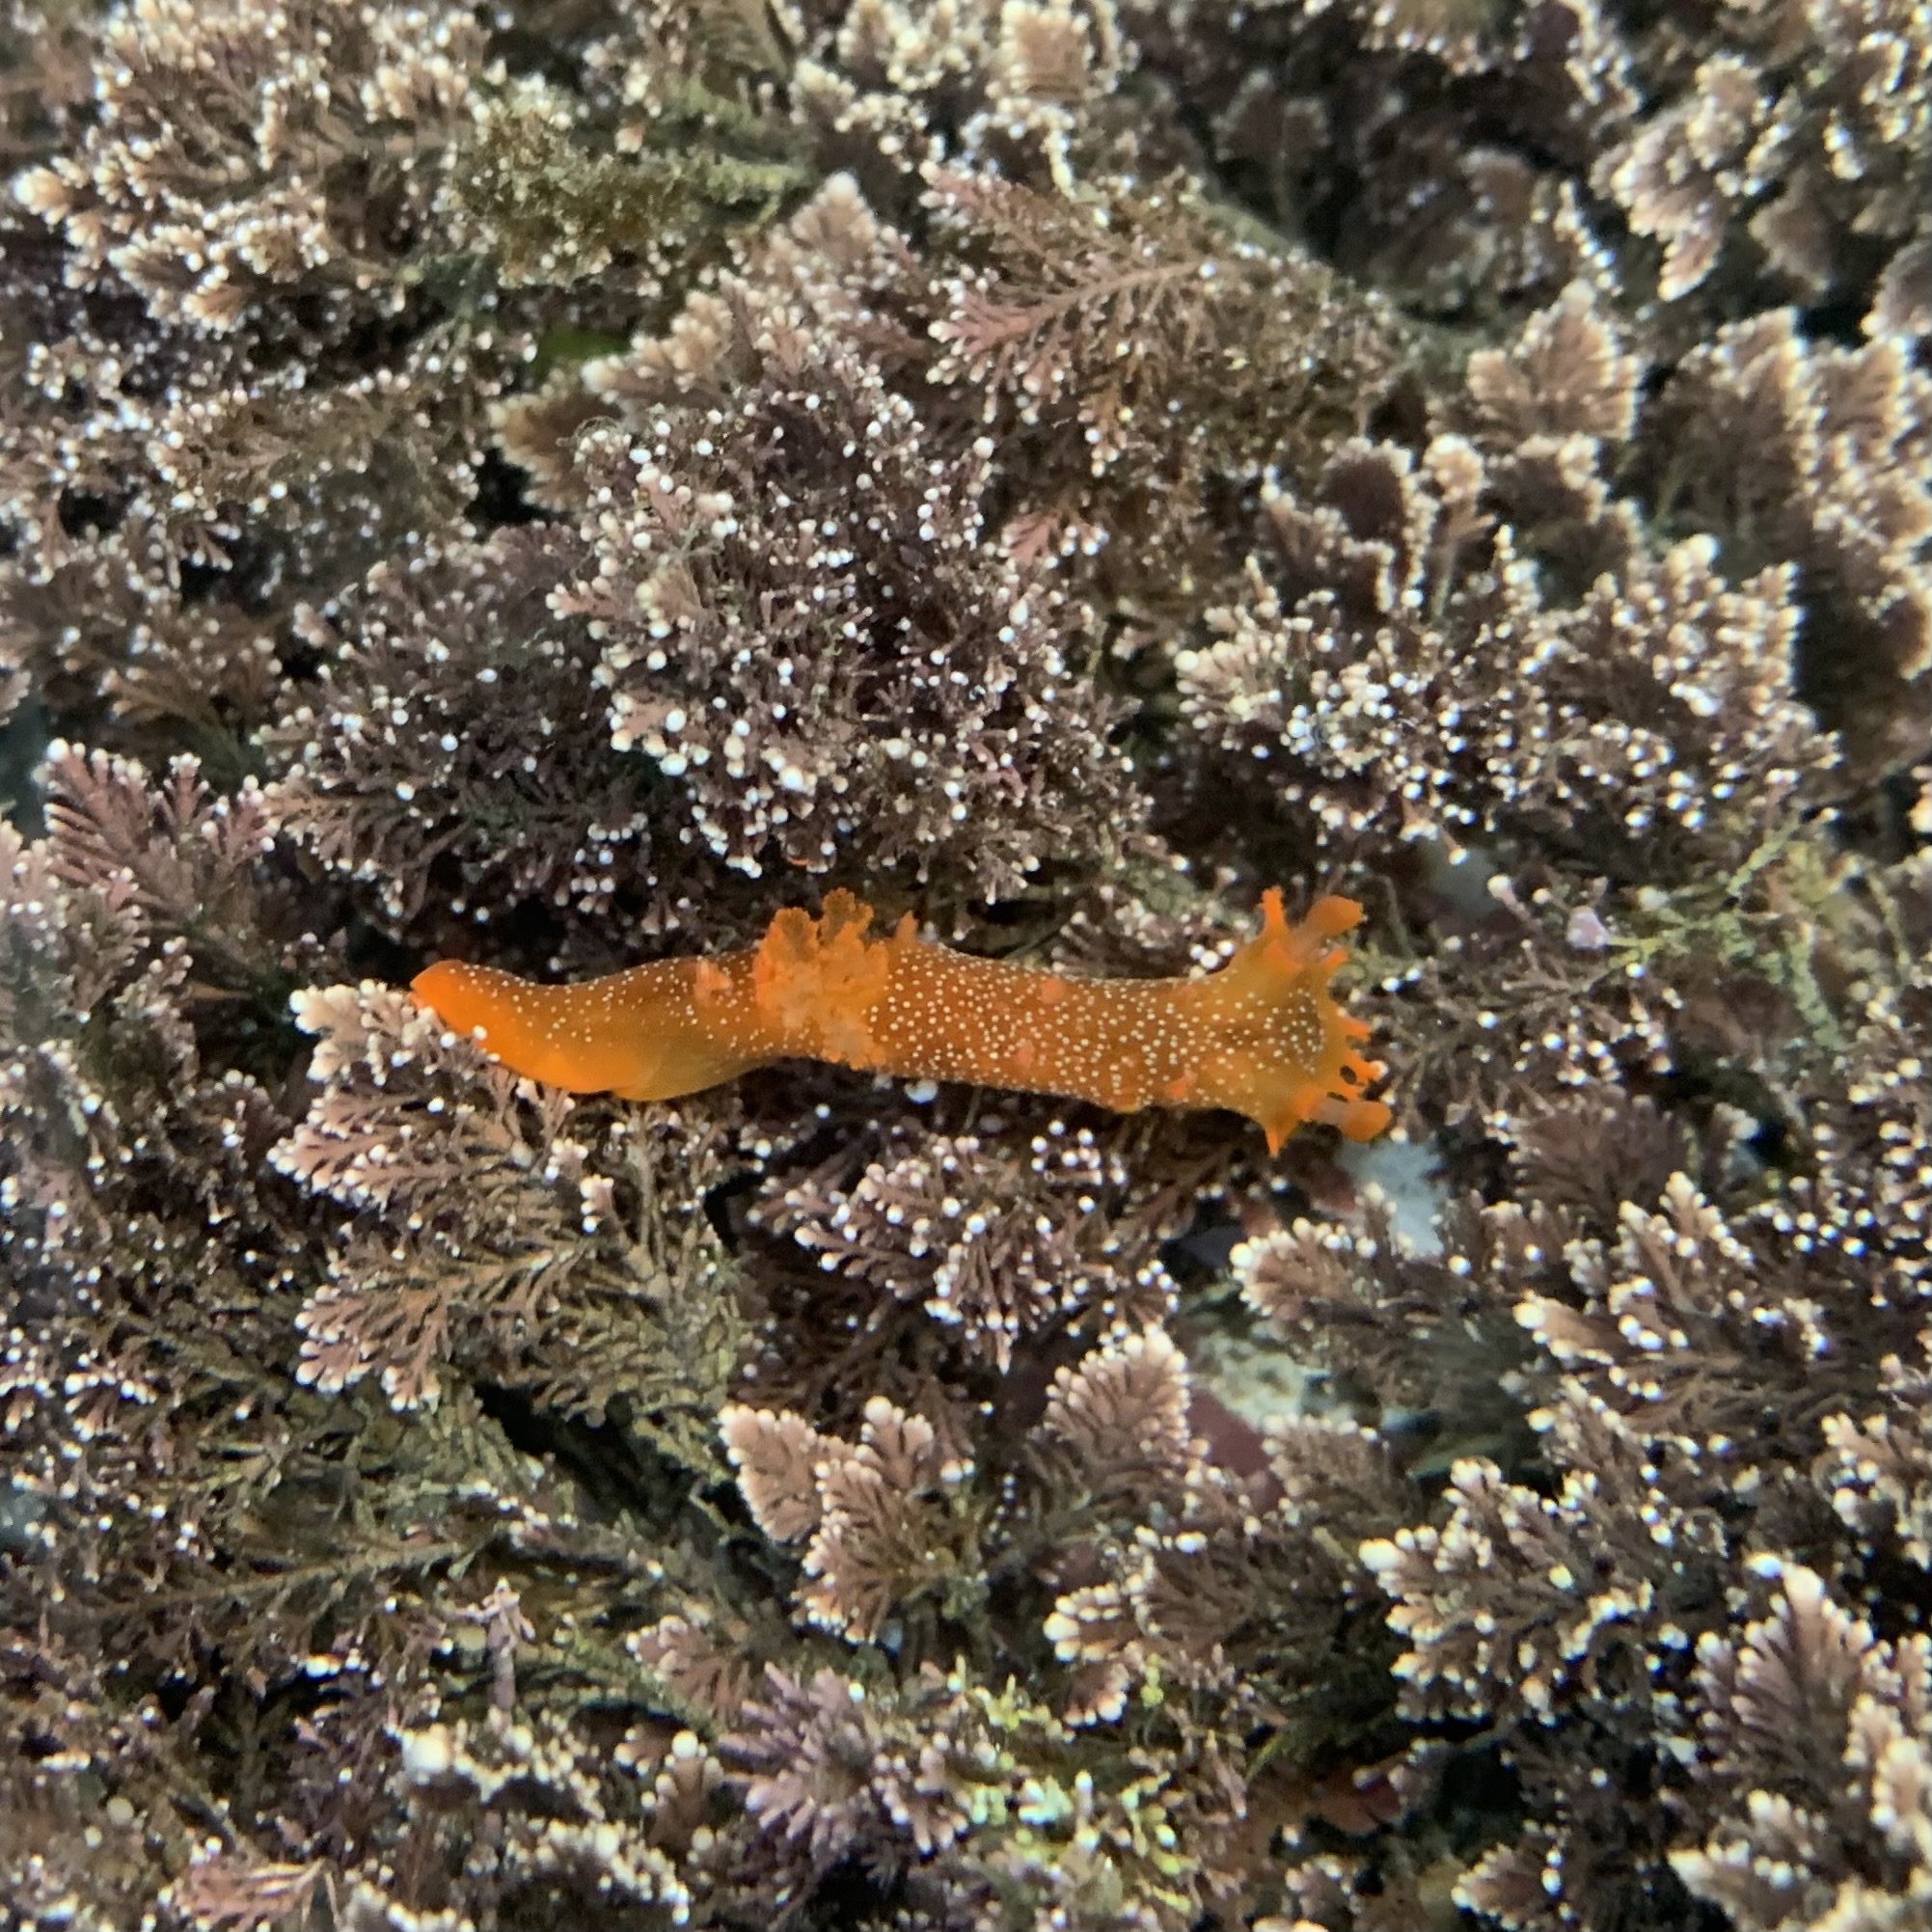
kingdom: Animalia
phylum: Mollusca
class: Gastropoda
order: Nudibranchia
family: Polyceridae
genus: Triopha
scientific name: Triopha maculata
